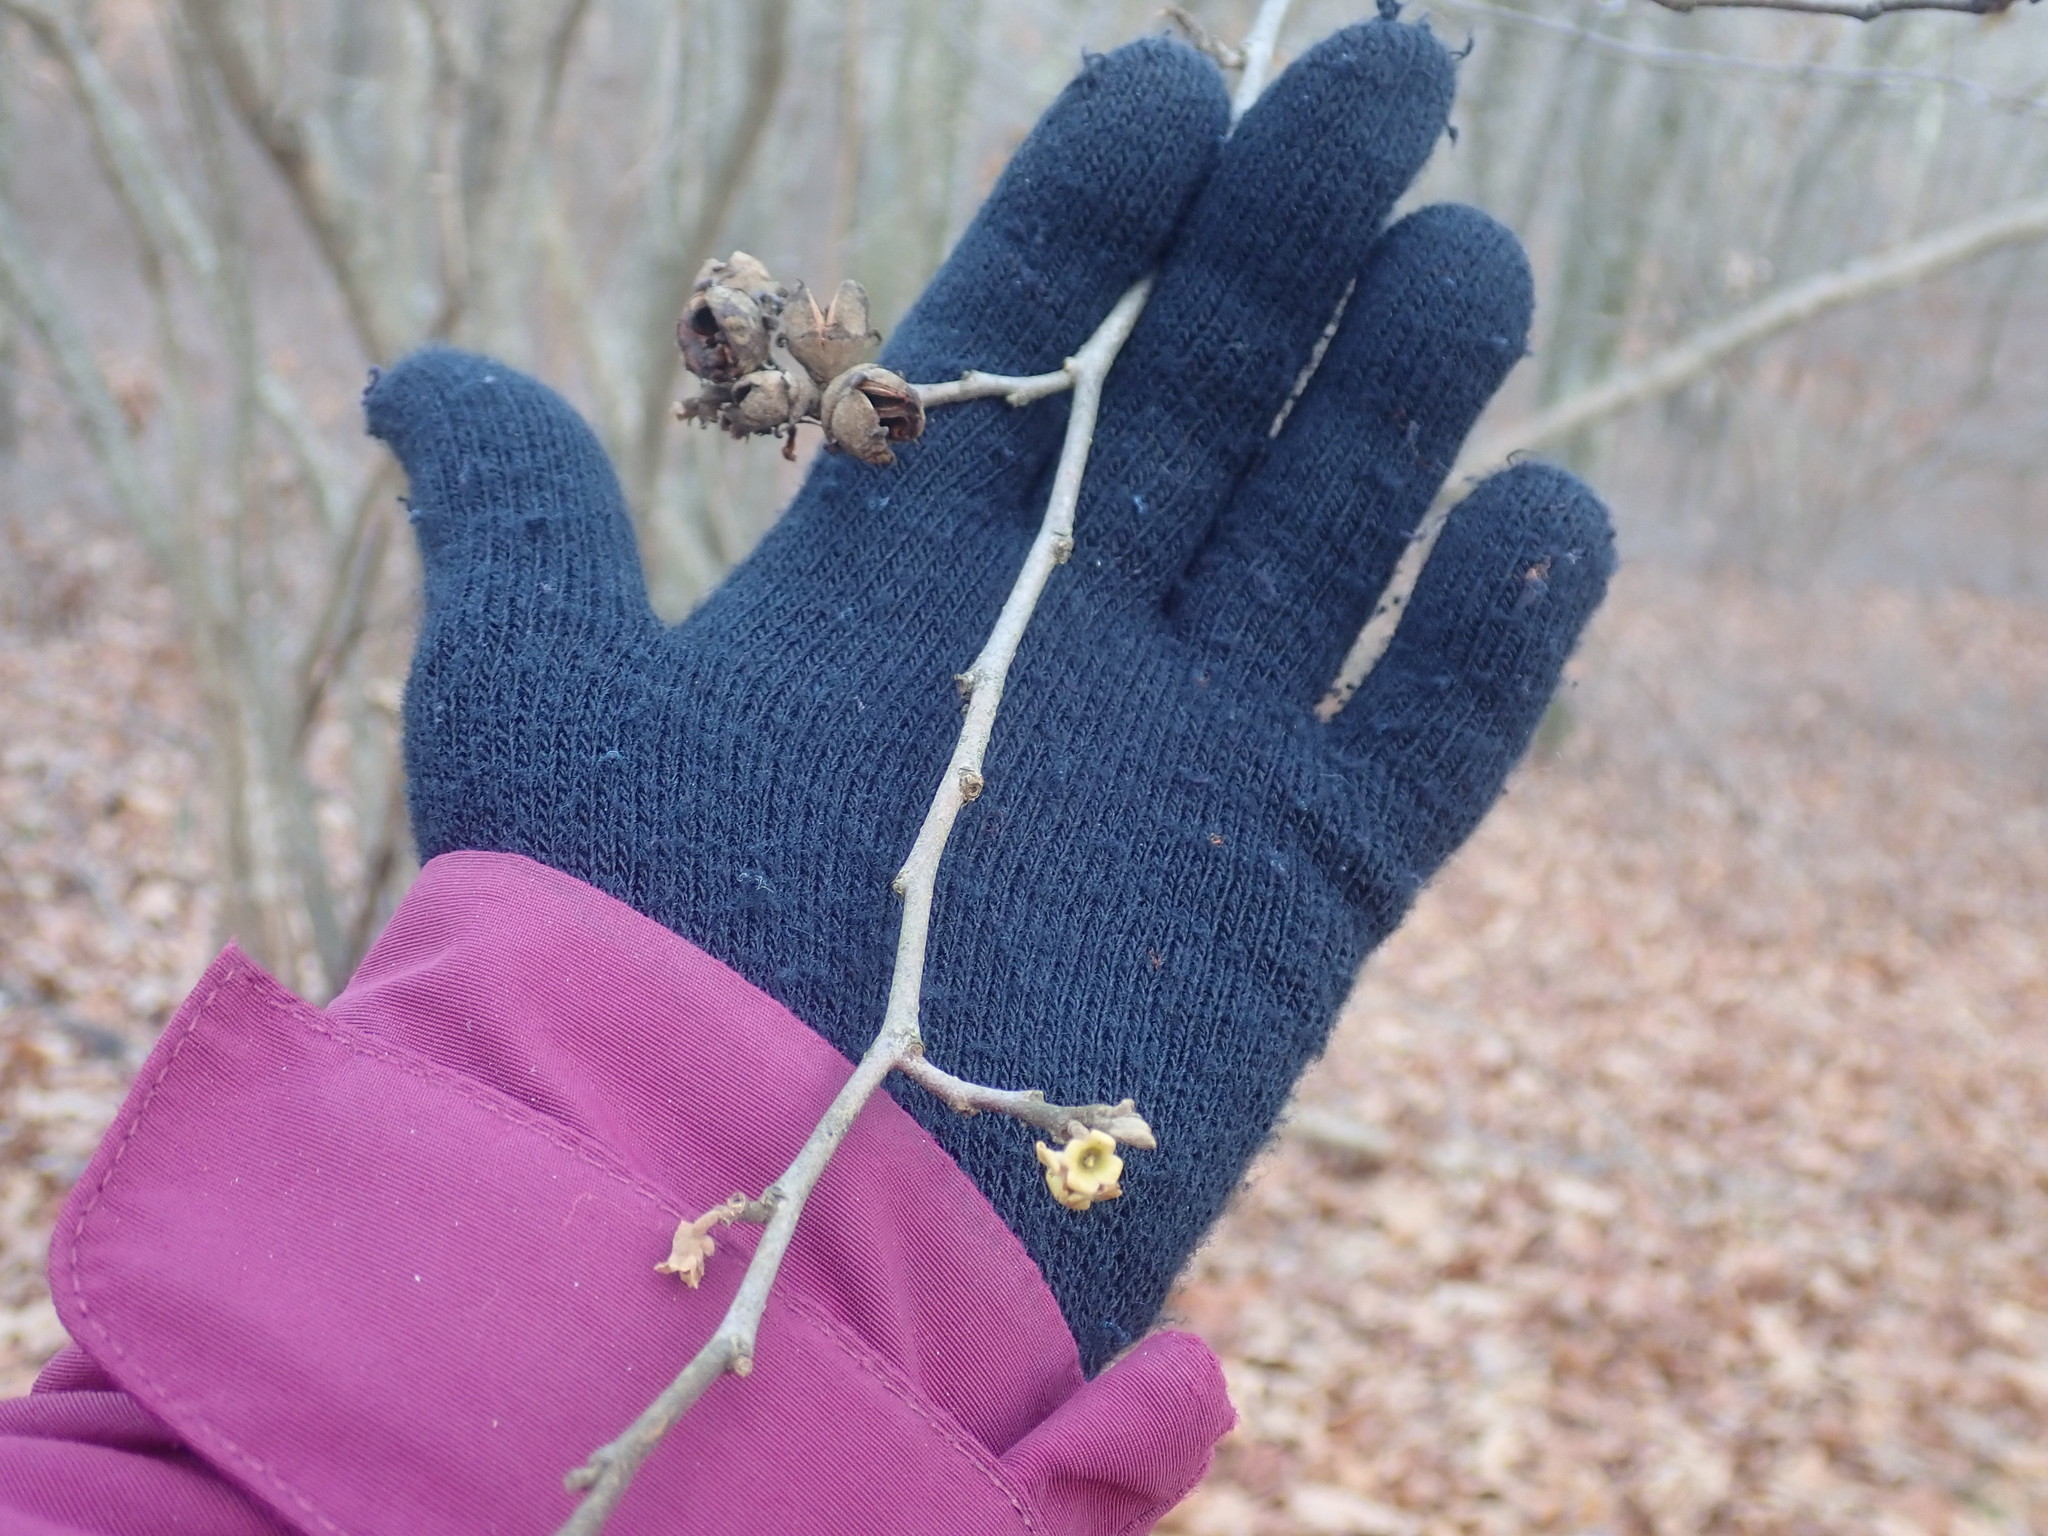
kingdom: Plantae
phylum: Tracheophyta
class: Magnoliopsida
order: Saxifragales
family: Hamamelidaceae
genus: Hamamelis
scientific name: Hamamelis virginiana
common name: Witch-hazel
